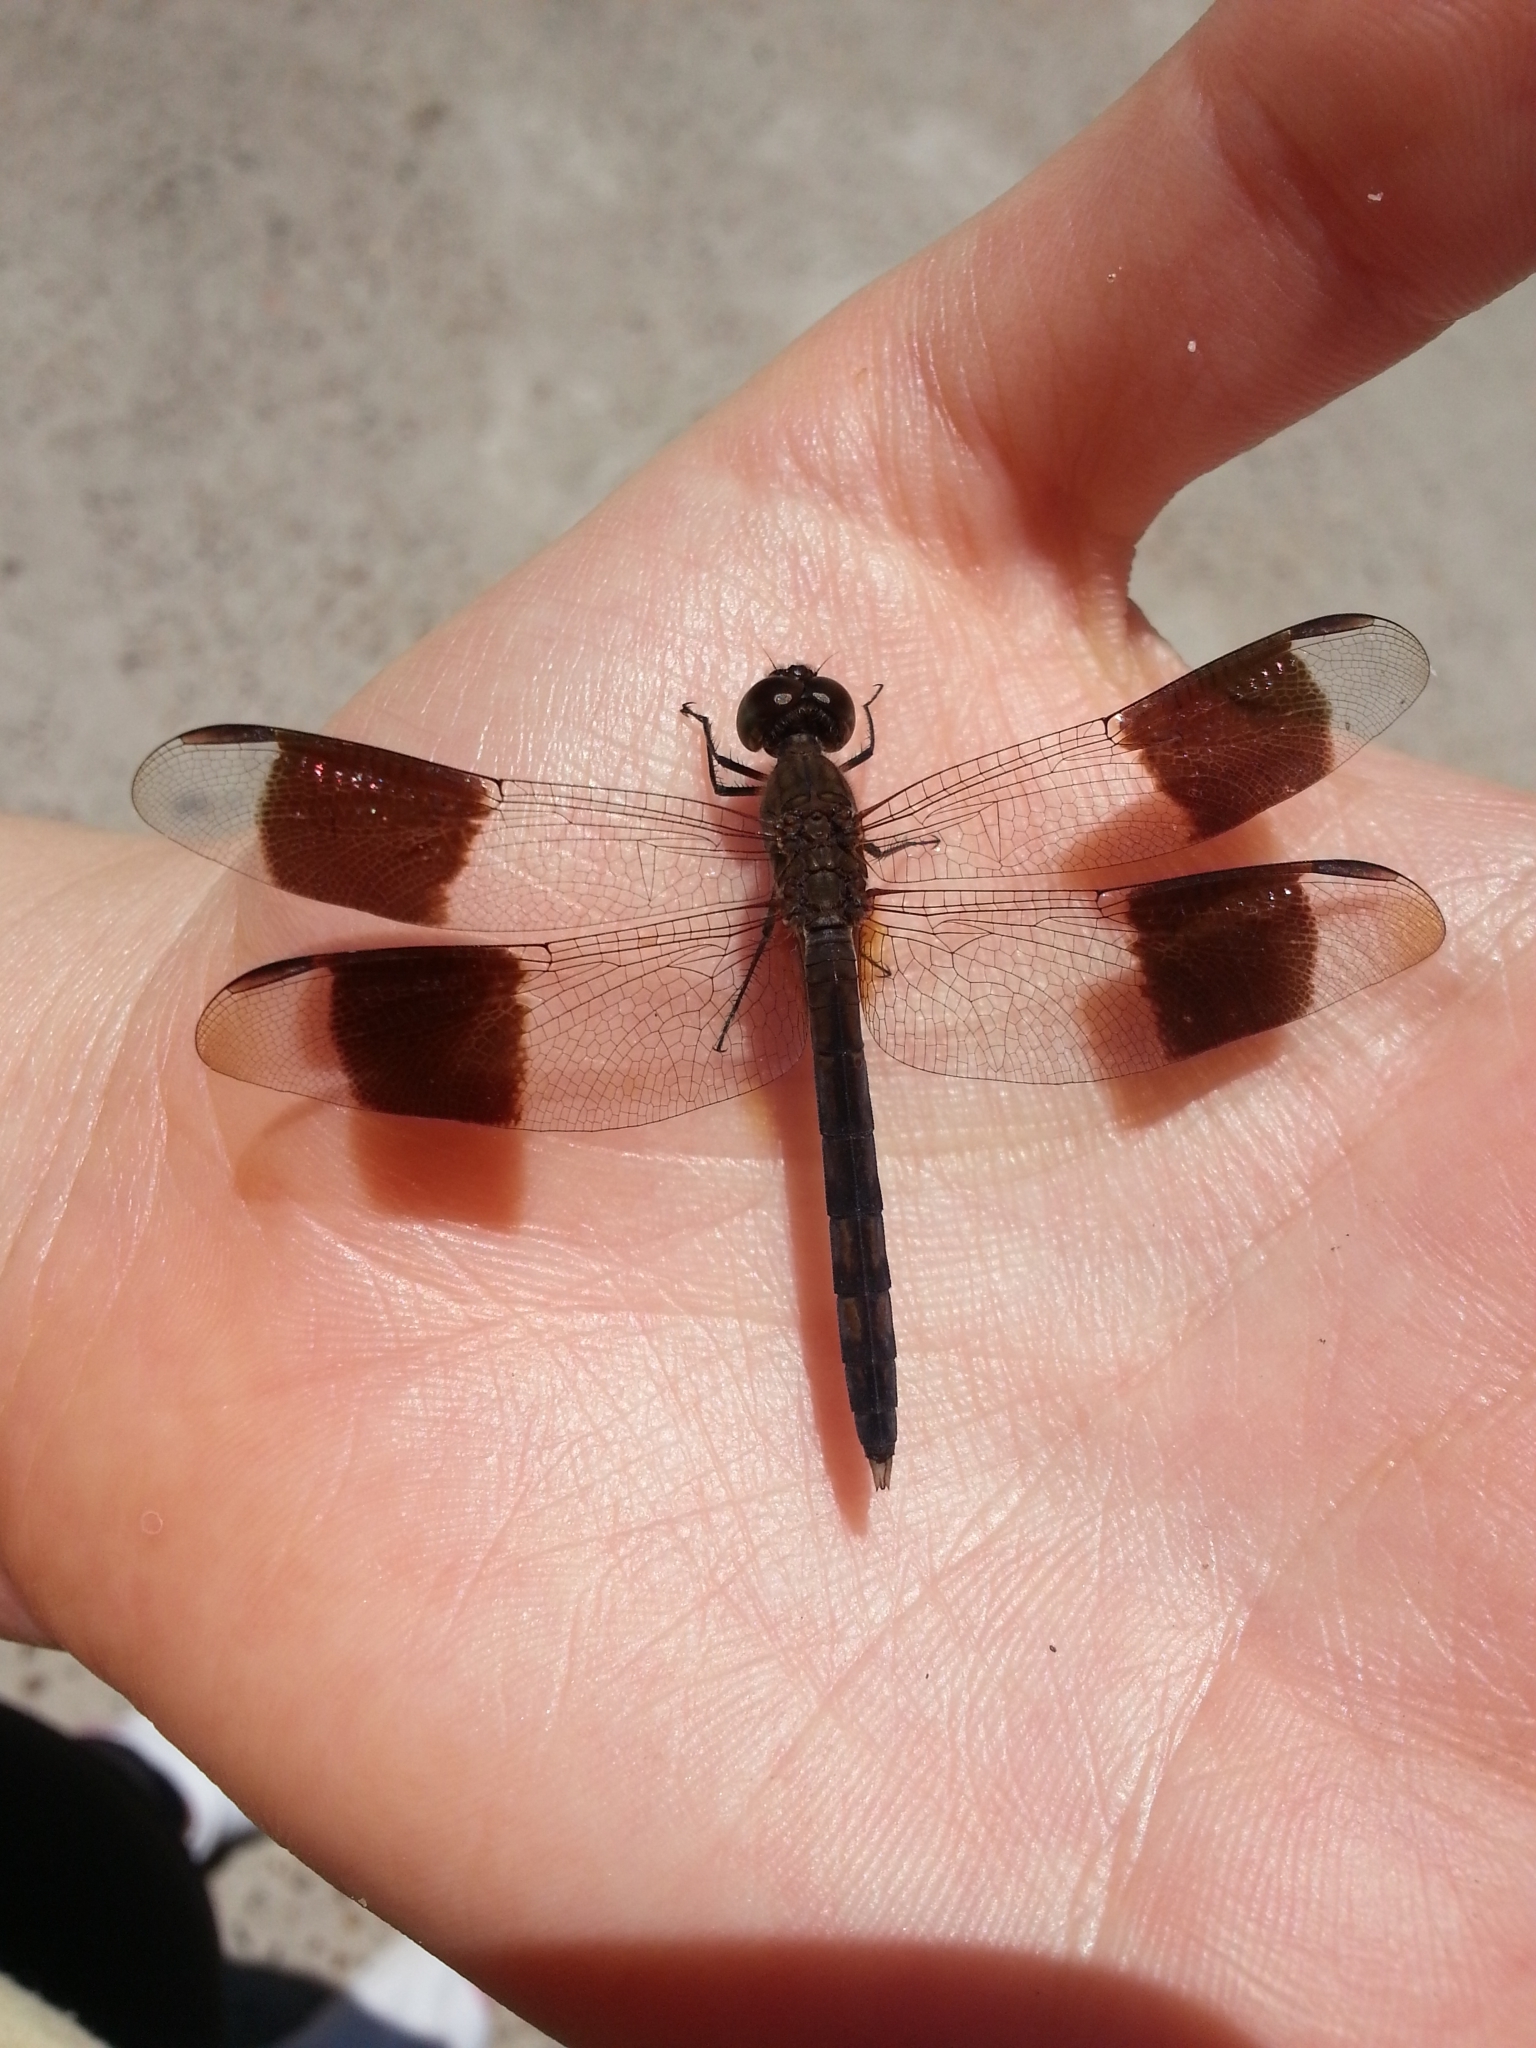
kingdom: Animalia
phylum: Arthropoda
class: Insecta
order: Odonata
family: Libellulidae
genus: Erythrodiplax
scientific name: Erythrodiplax umbrata
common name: Band-winged dragonlet
